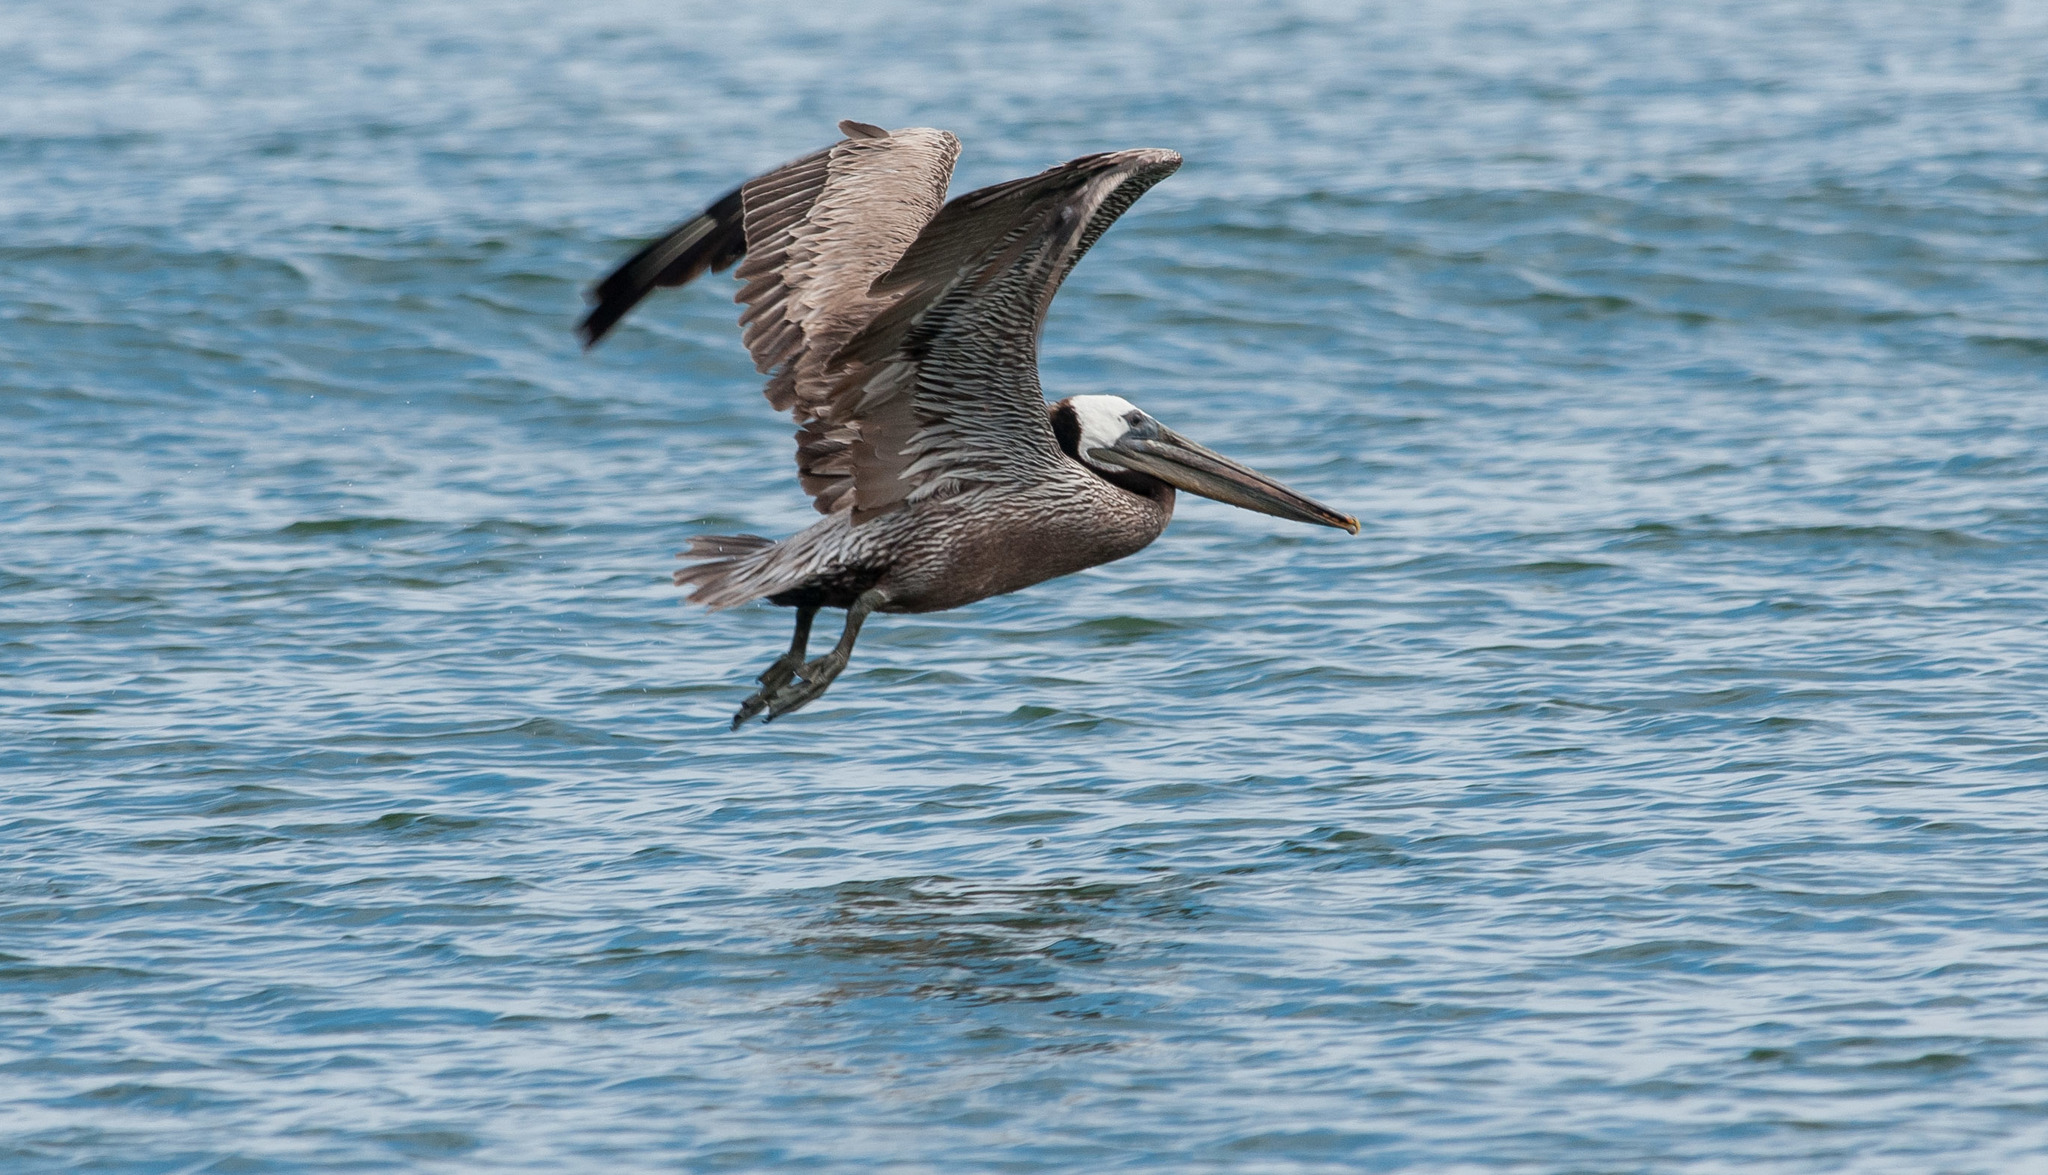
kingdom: Animalia
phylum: Chordata
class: Aves
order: Pelecaniformes
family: Pelecanidae
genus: Pelecanus
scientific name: Pelecanus occidentalis
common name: Brown pelican
